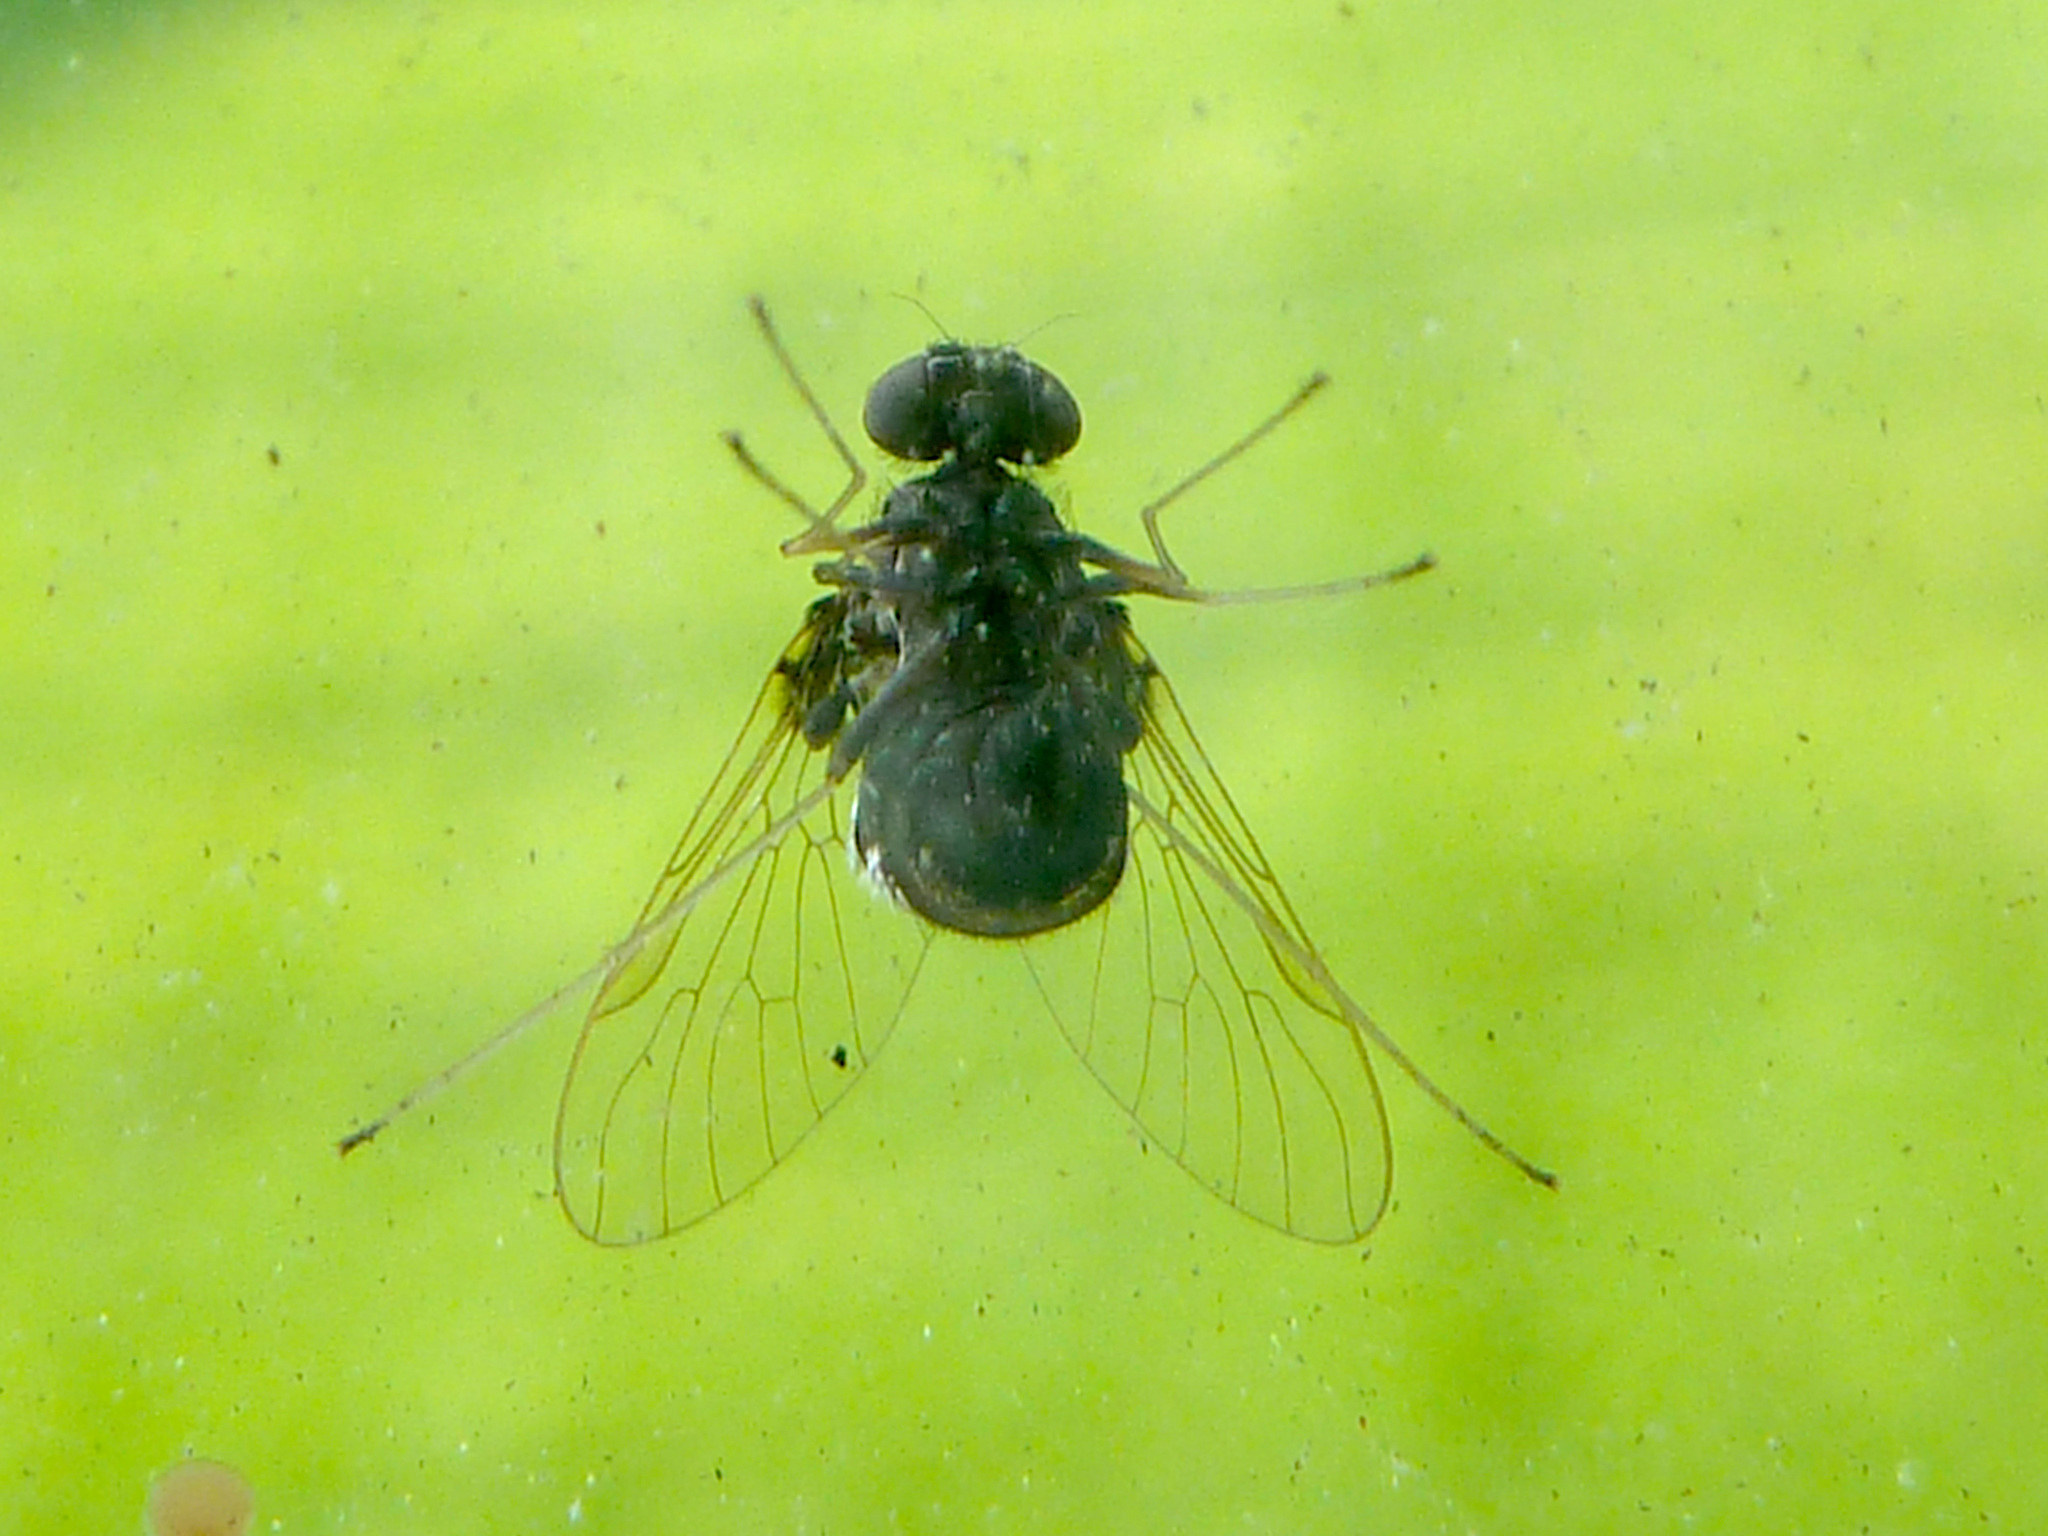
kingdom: Animalia
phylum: Arthropoda
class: Insecta
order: Diptera
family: Rhagionidae
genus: Chrysopilus
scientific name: Chrysopilus basilaris
